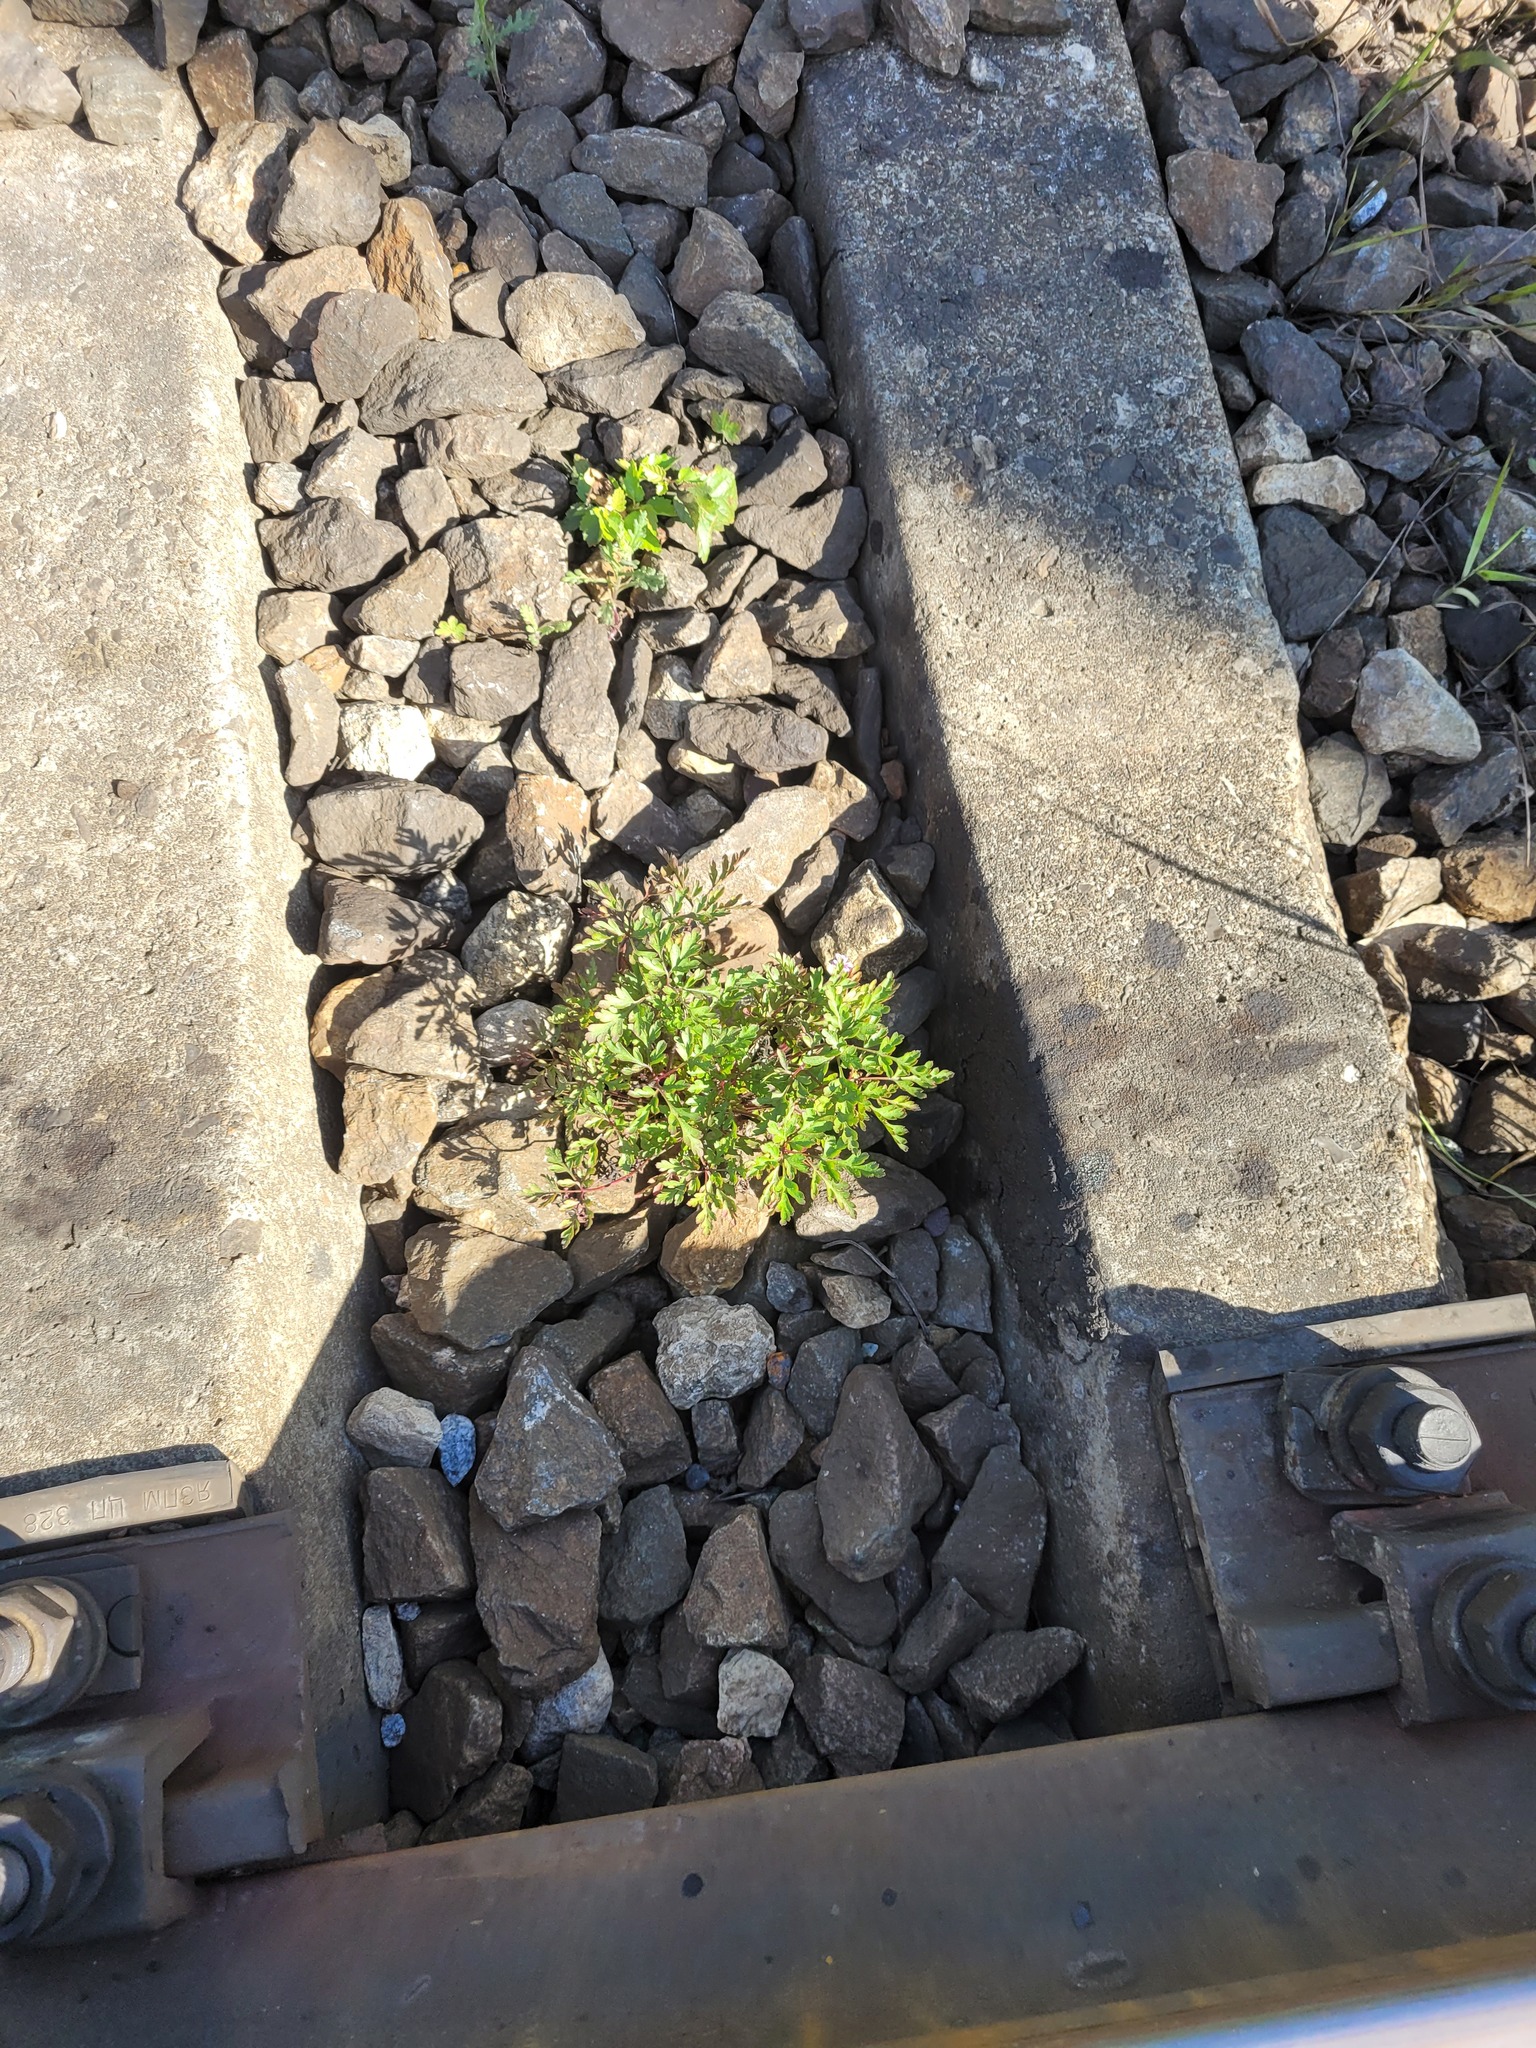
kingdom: Plantae
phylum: Tracheophyta
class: Magnoliopsida
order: Geraniales
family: Geraniaceae
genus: Geranium
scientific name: Geranium robertianum
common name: Herb-robert
